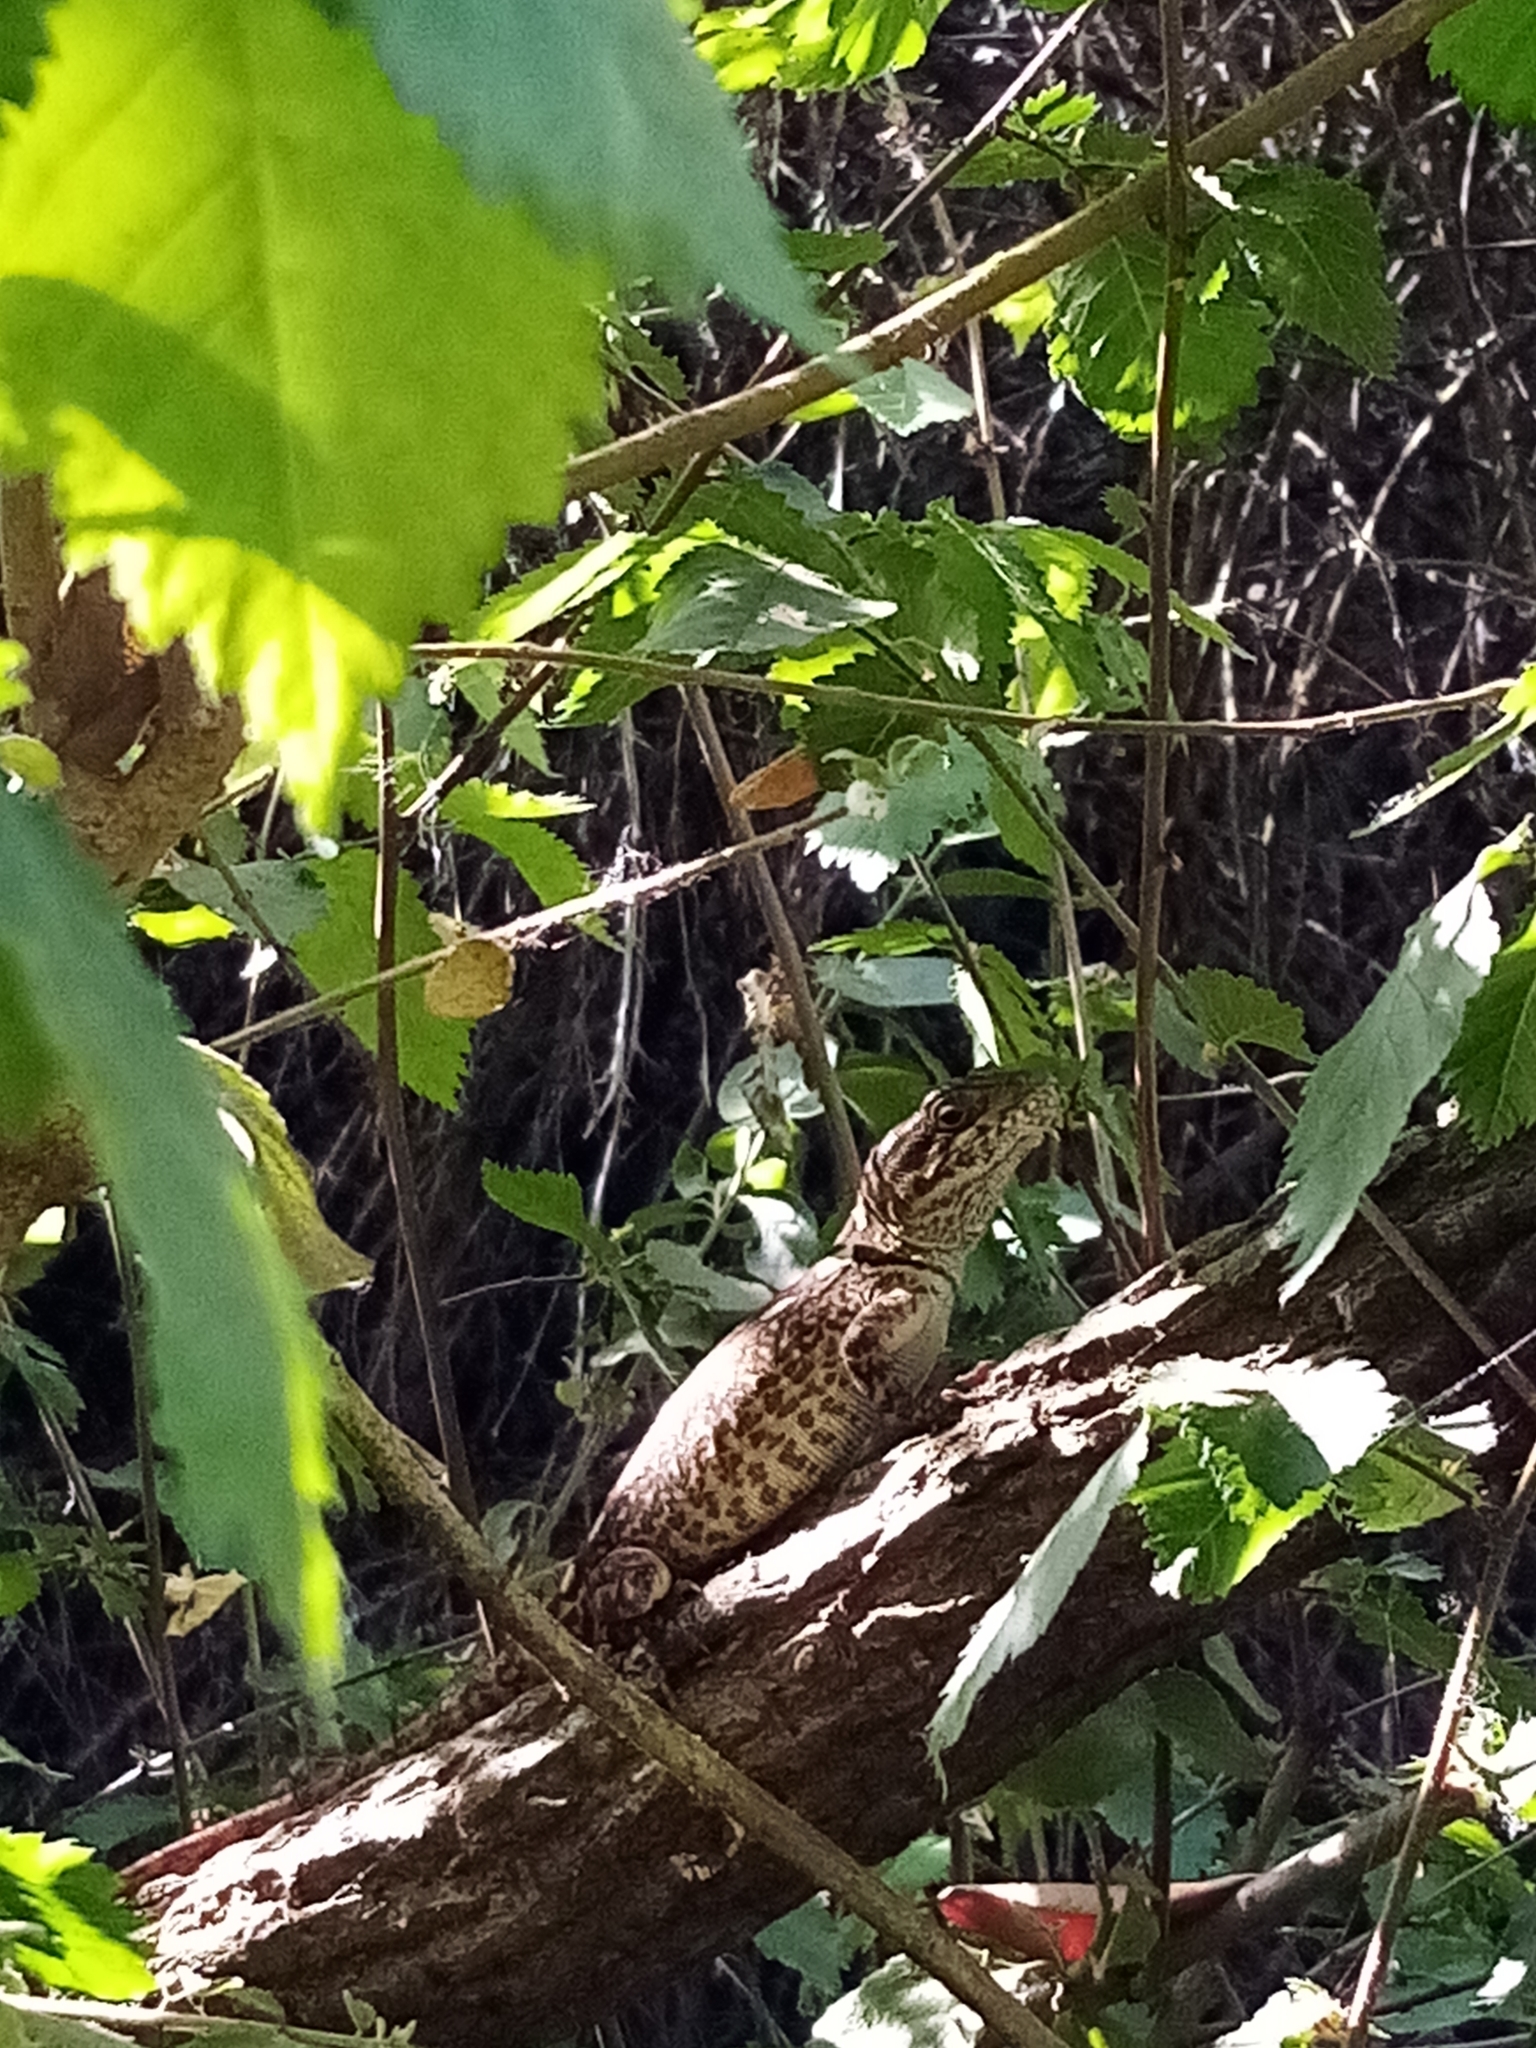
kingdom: Animalia
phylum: Chordata
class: Squamata
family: Leiosauridae
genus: Pristidactylus
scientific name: Pristidactylus valeriae
